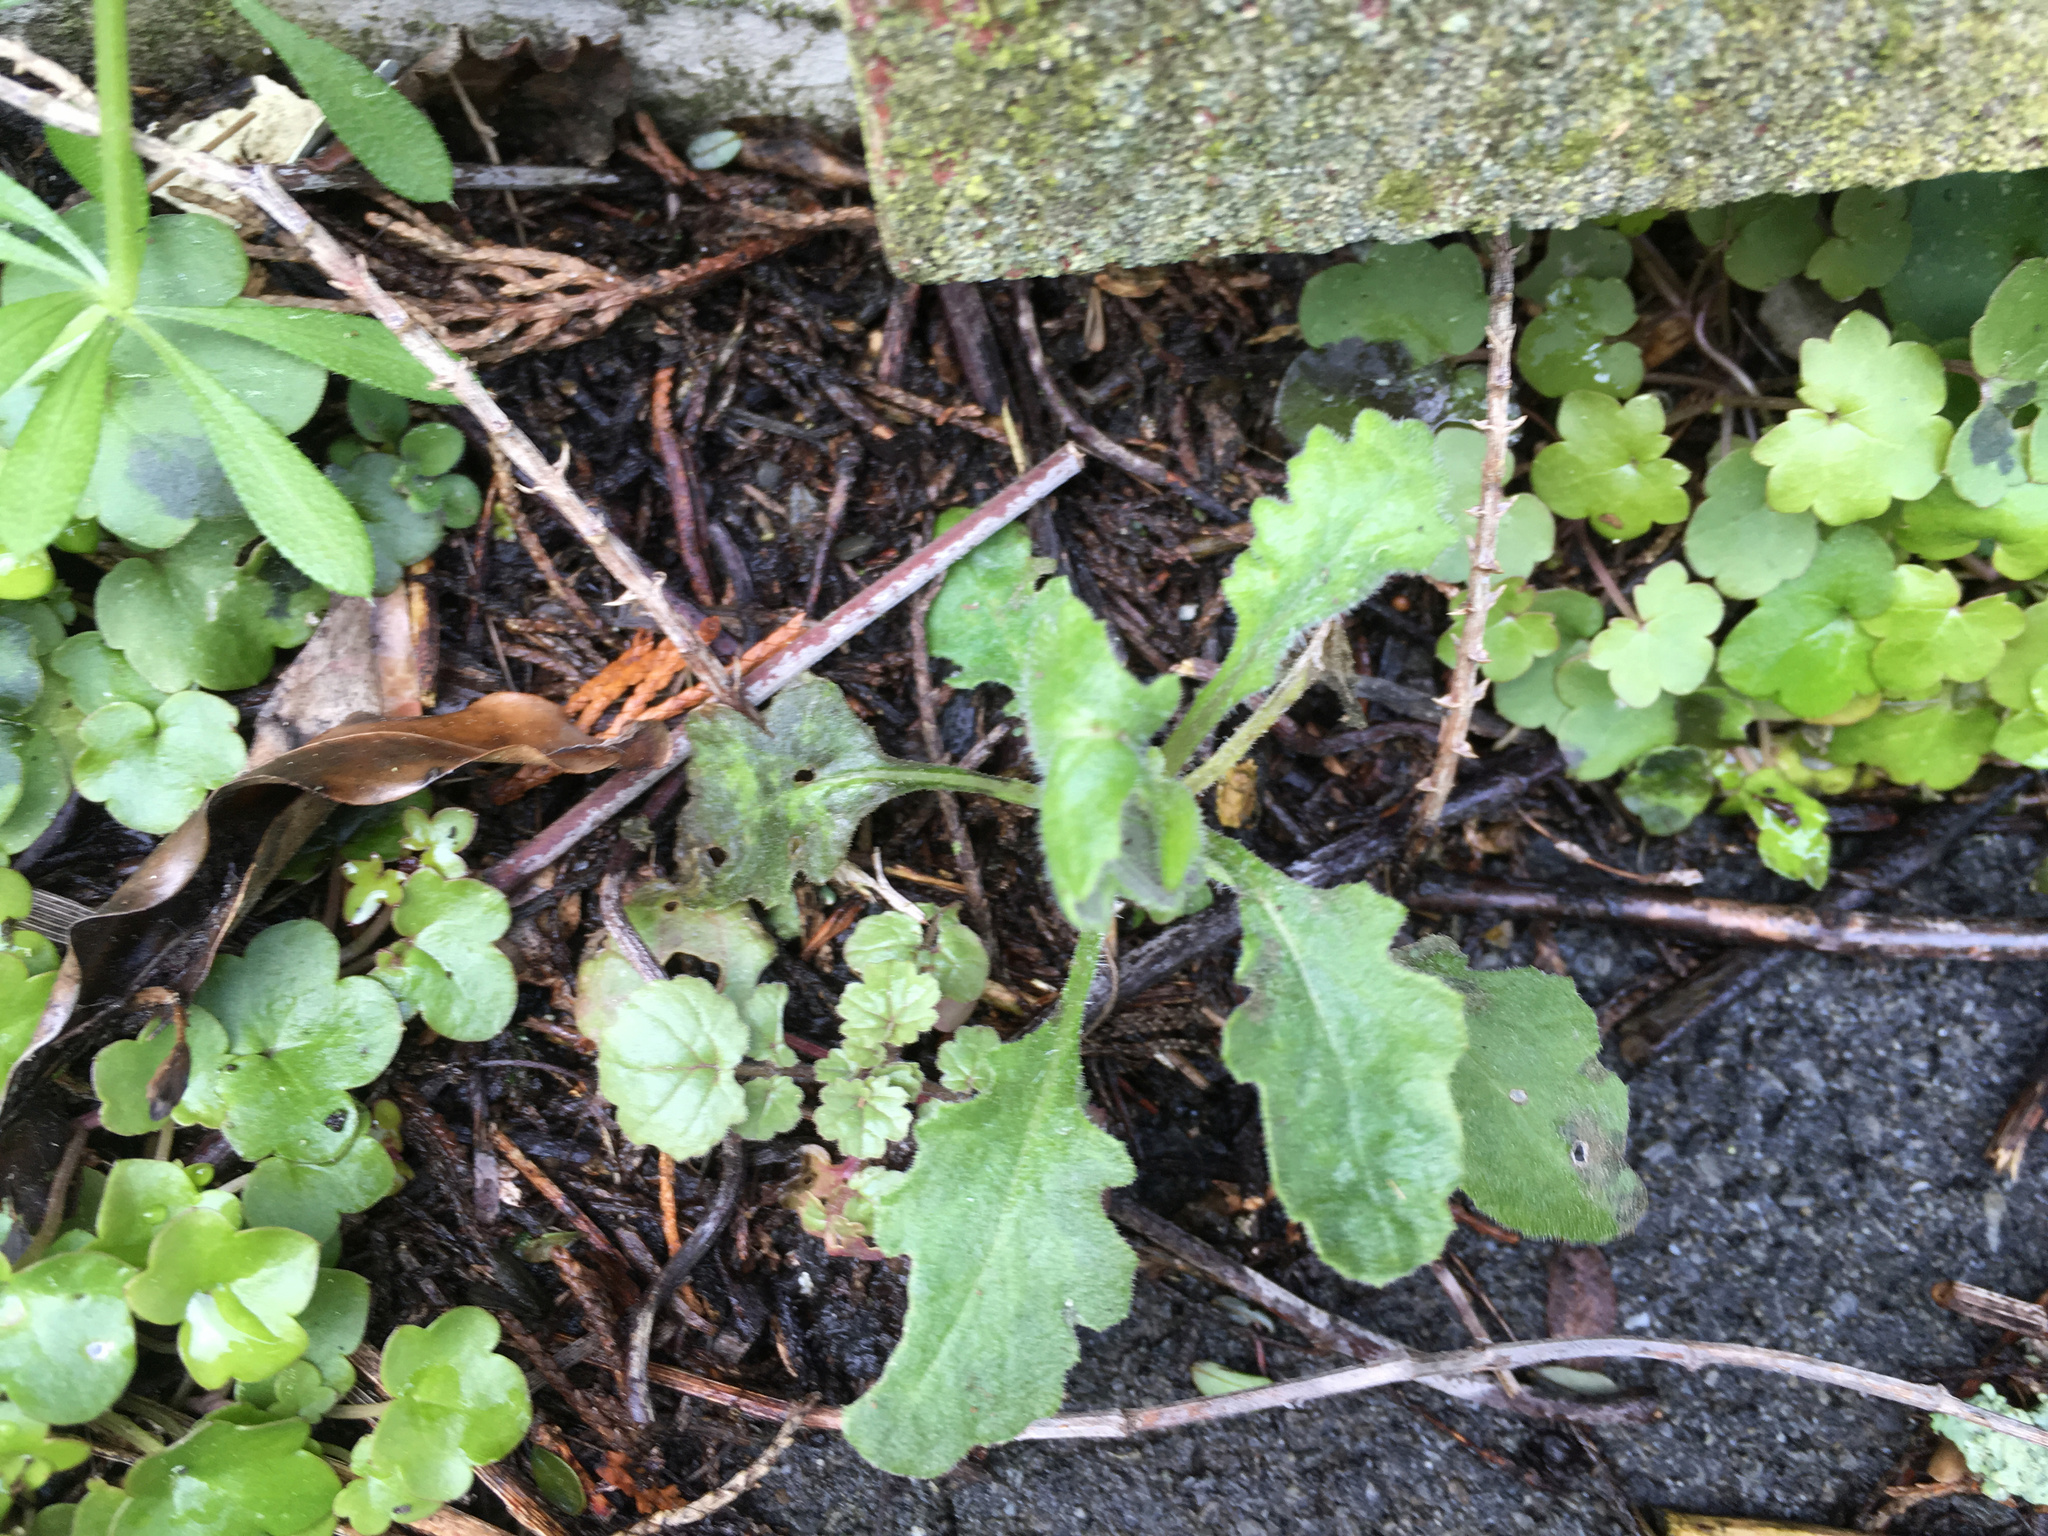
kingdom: Plantae
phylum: Tracheophyta
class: Magnoliopsida
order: Asterales
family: Asteraceae
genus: Senecio
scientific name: Senecio glomeratus
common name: Cutleaf burnweed
